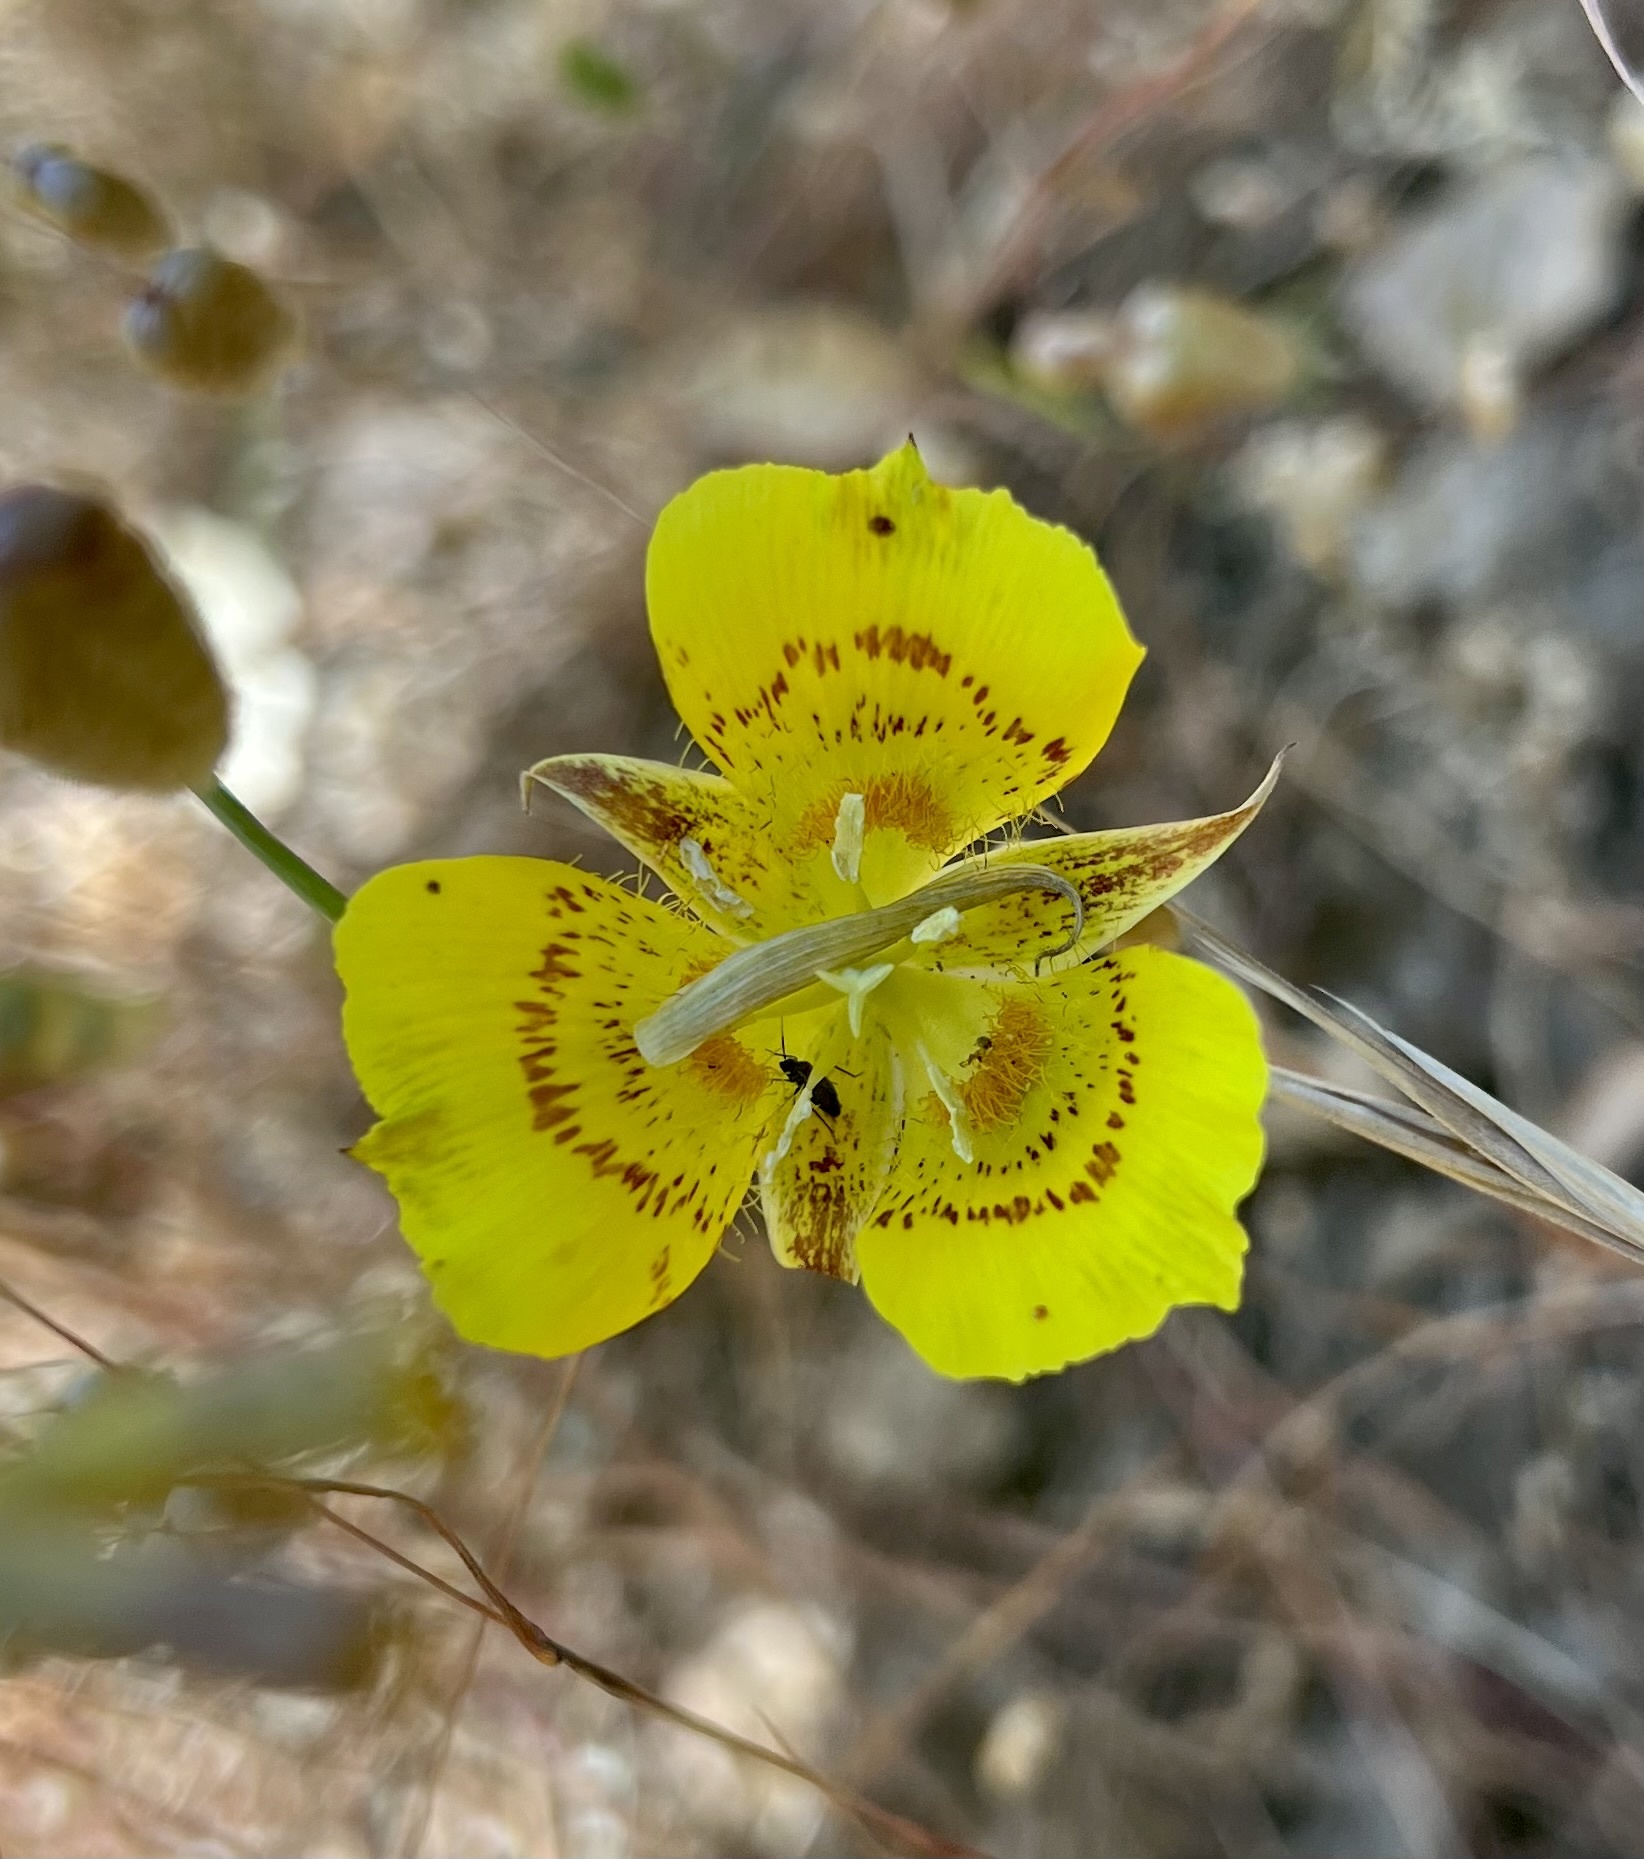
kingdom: Plantae
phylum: Tracheophyta
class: Liliopsida
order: Liliales
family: Liliaceae
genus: Calochortus
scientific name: Calochortus luteus
